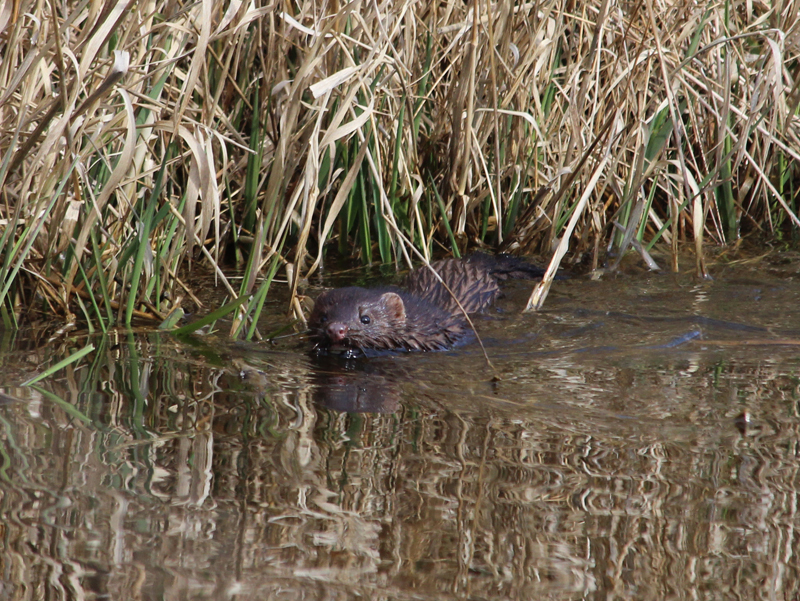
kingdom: Animalia
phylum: Chordata
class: Mammalia
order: Carnivora
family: Mustelidae
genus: Mustela
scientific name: Mustela
